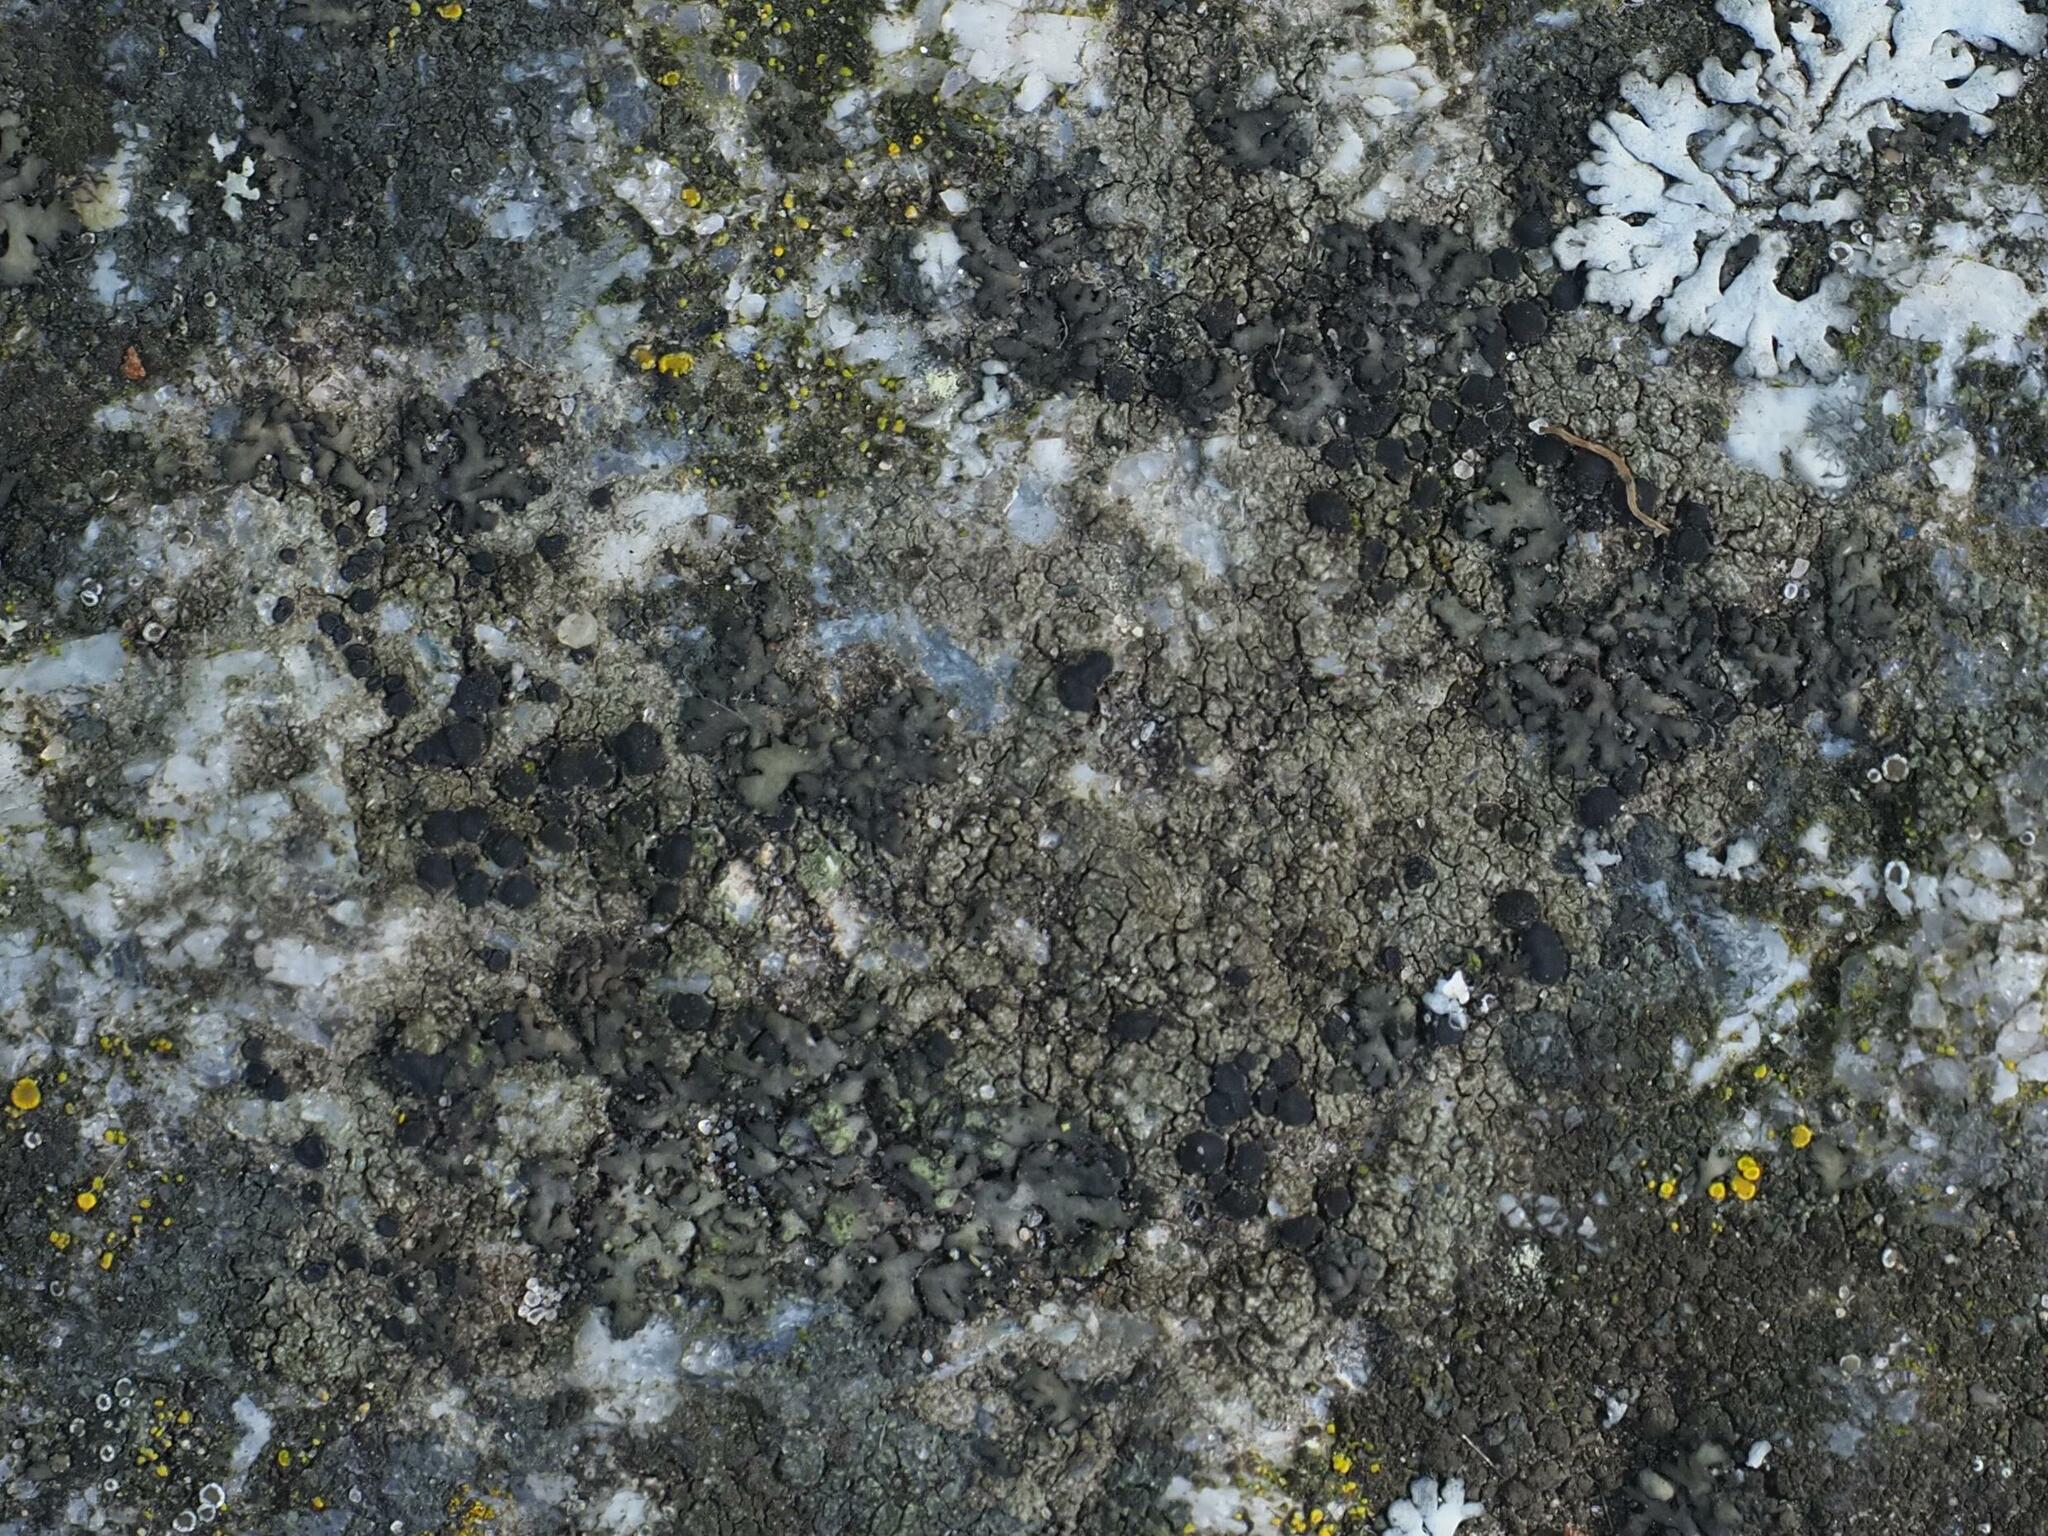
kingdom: Fungi
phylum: Ascomycota
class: Lecanoromycetes
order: Lecanorales
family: Lecanoraceae
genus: Lecidella
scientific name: Lecidella stigmatea
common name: Limestone disc lichen
